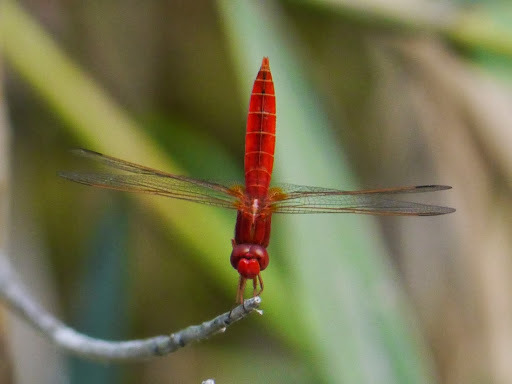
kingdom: Animalia
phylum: Arthropoda
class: Insecta
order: Odonata
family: Libellulidae
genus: Crocothemis
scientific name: Crocothemis erythraea
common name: Scarlet dragonfly
